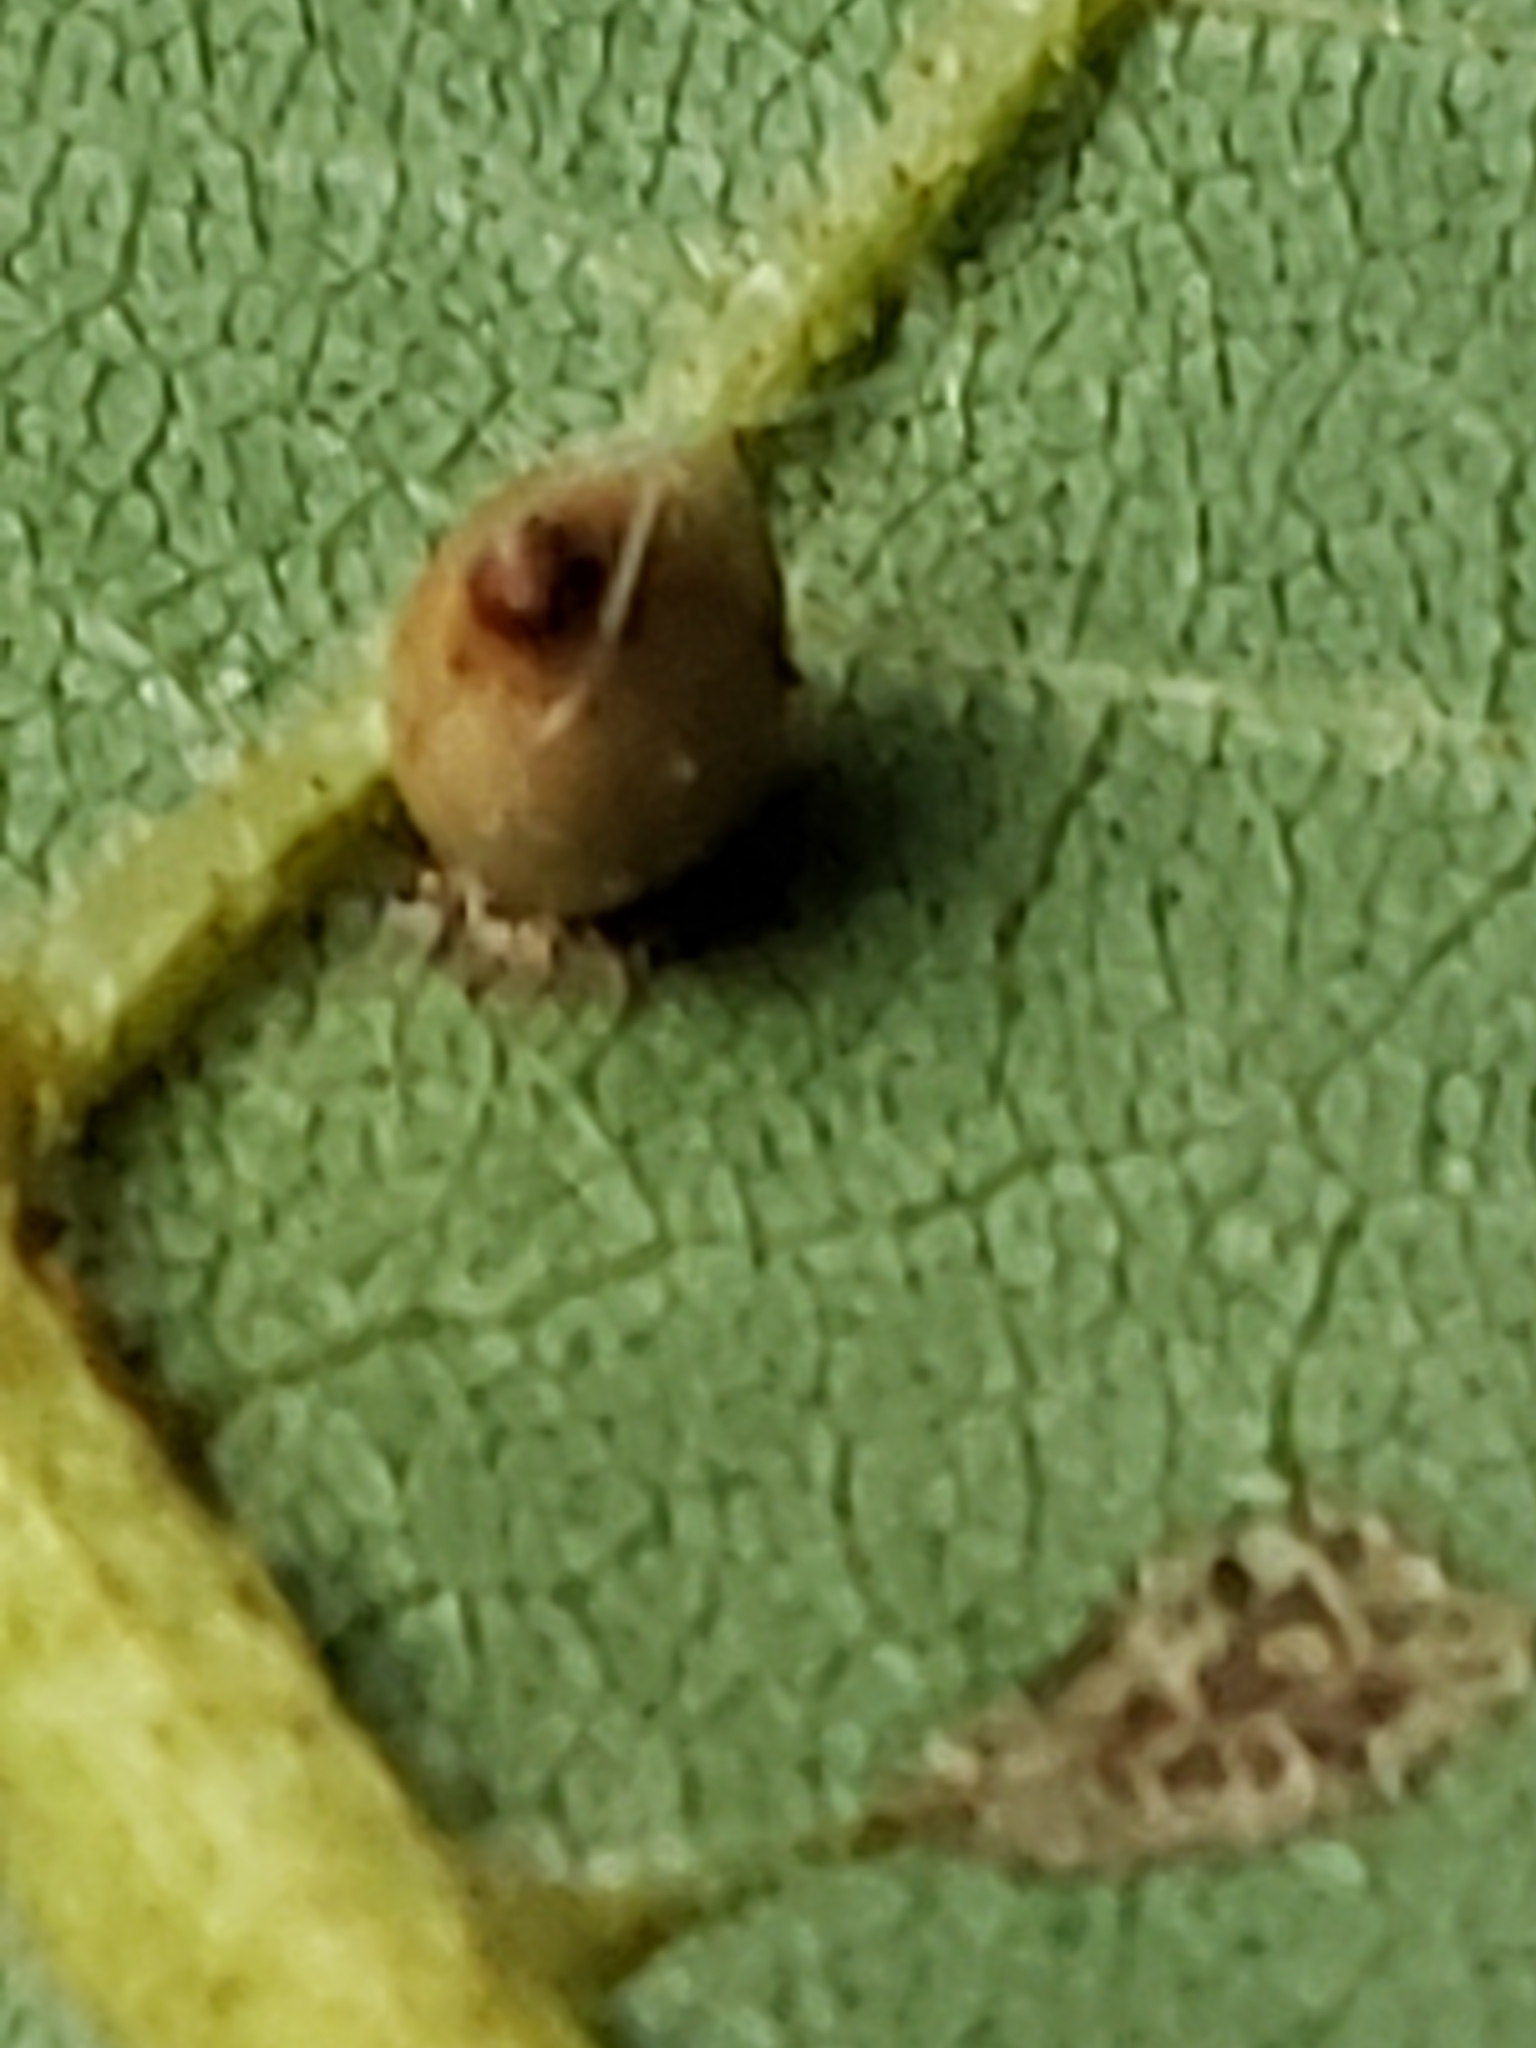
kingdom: Animalia
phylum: Arthropoda
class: Insecta
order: Diptera
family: Cecidomyiidae
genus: Caryomyia
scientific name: Caryomyia caryae
